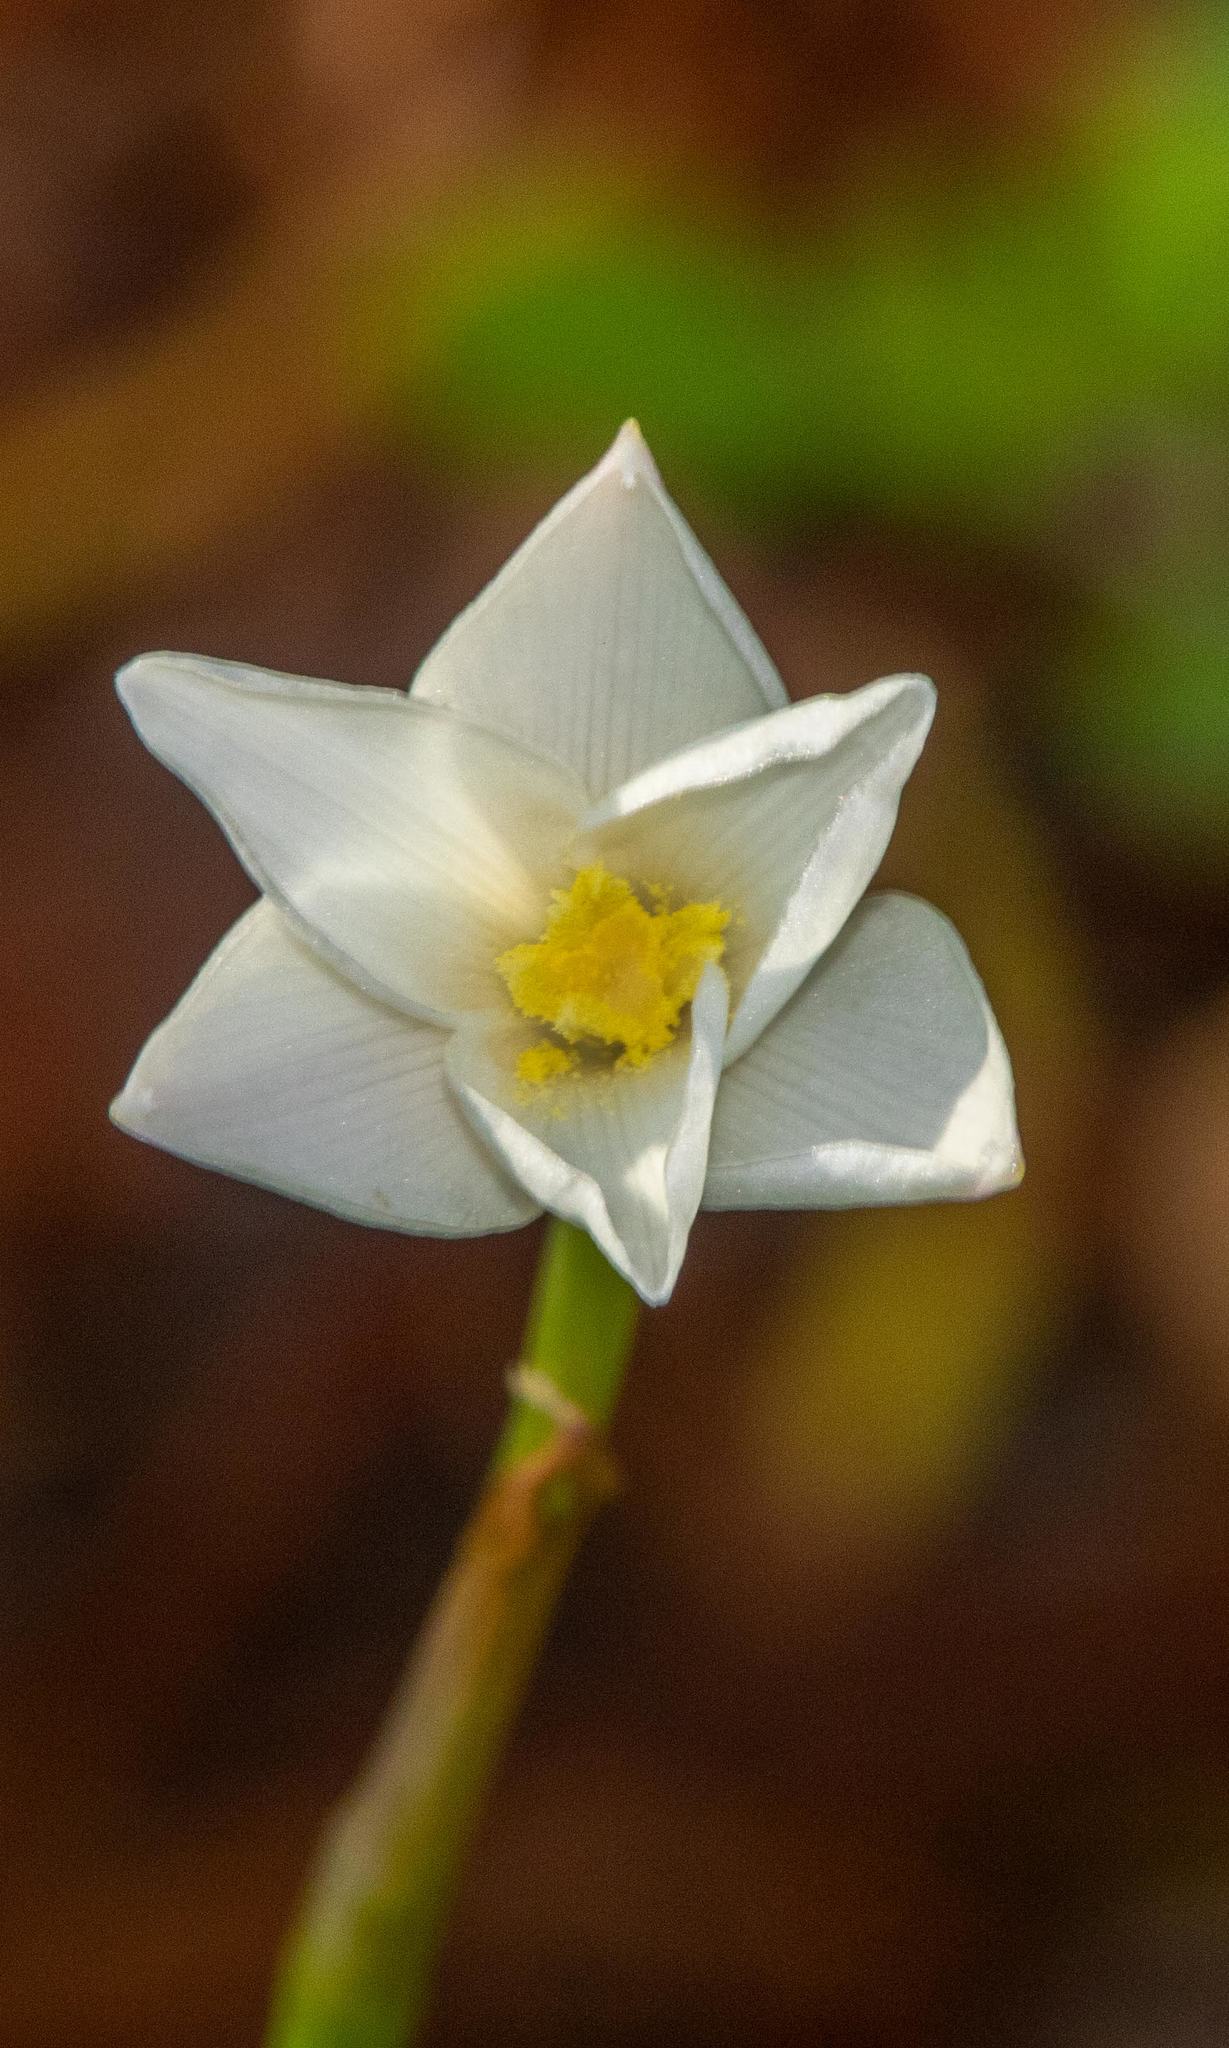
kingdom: Plantae
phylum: Tracheophyta
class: Liliopsida
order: Asparagales
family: Amaryllidaceae
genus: Zephyranthes
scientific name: Zephyranthes chlorosolen
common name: Evening rain-lily
